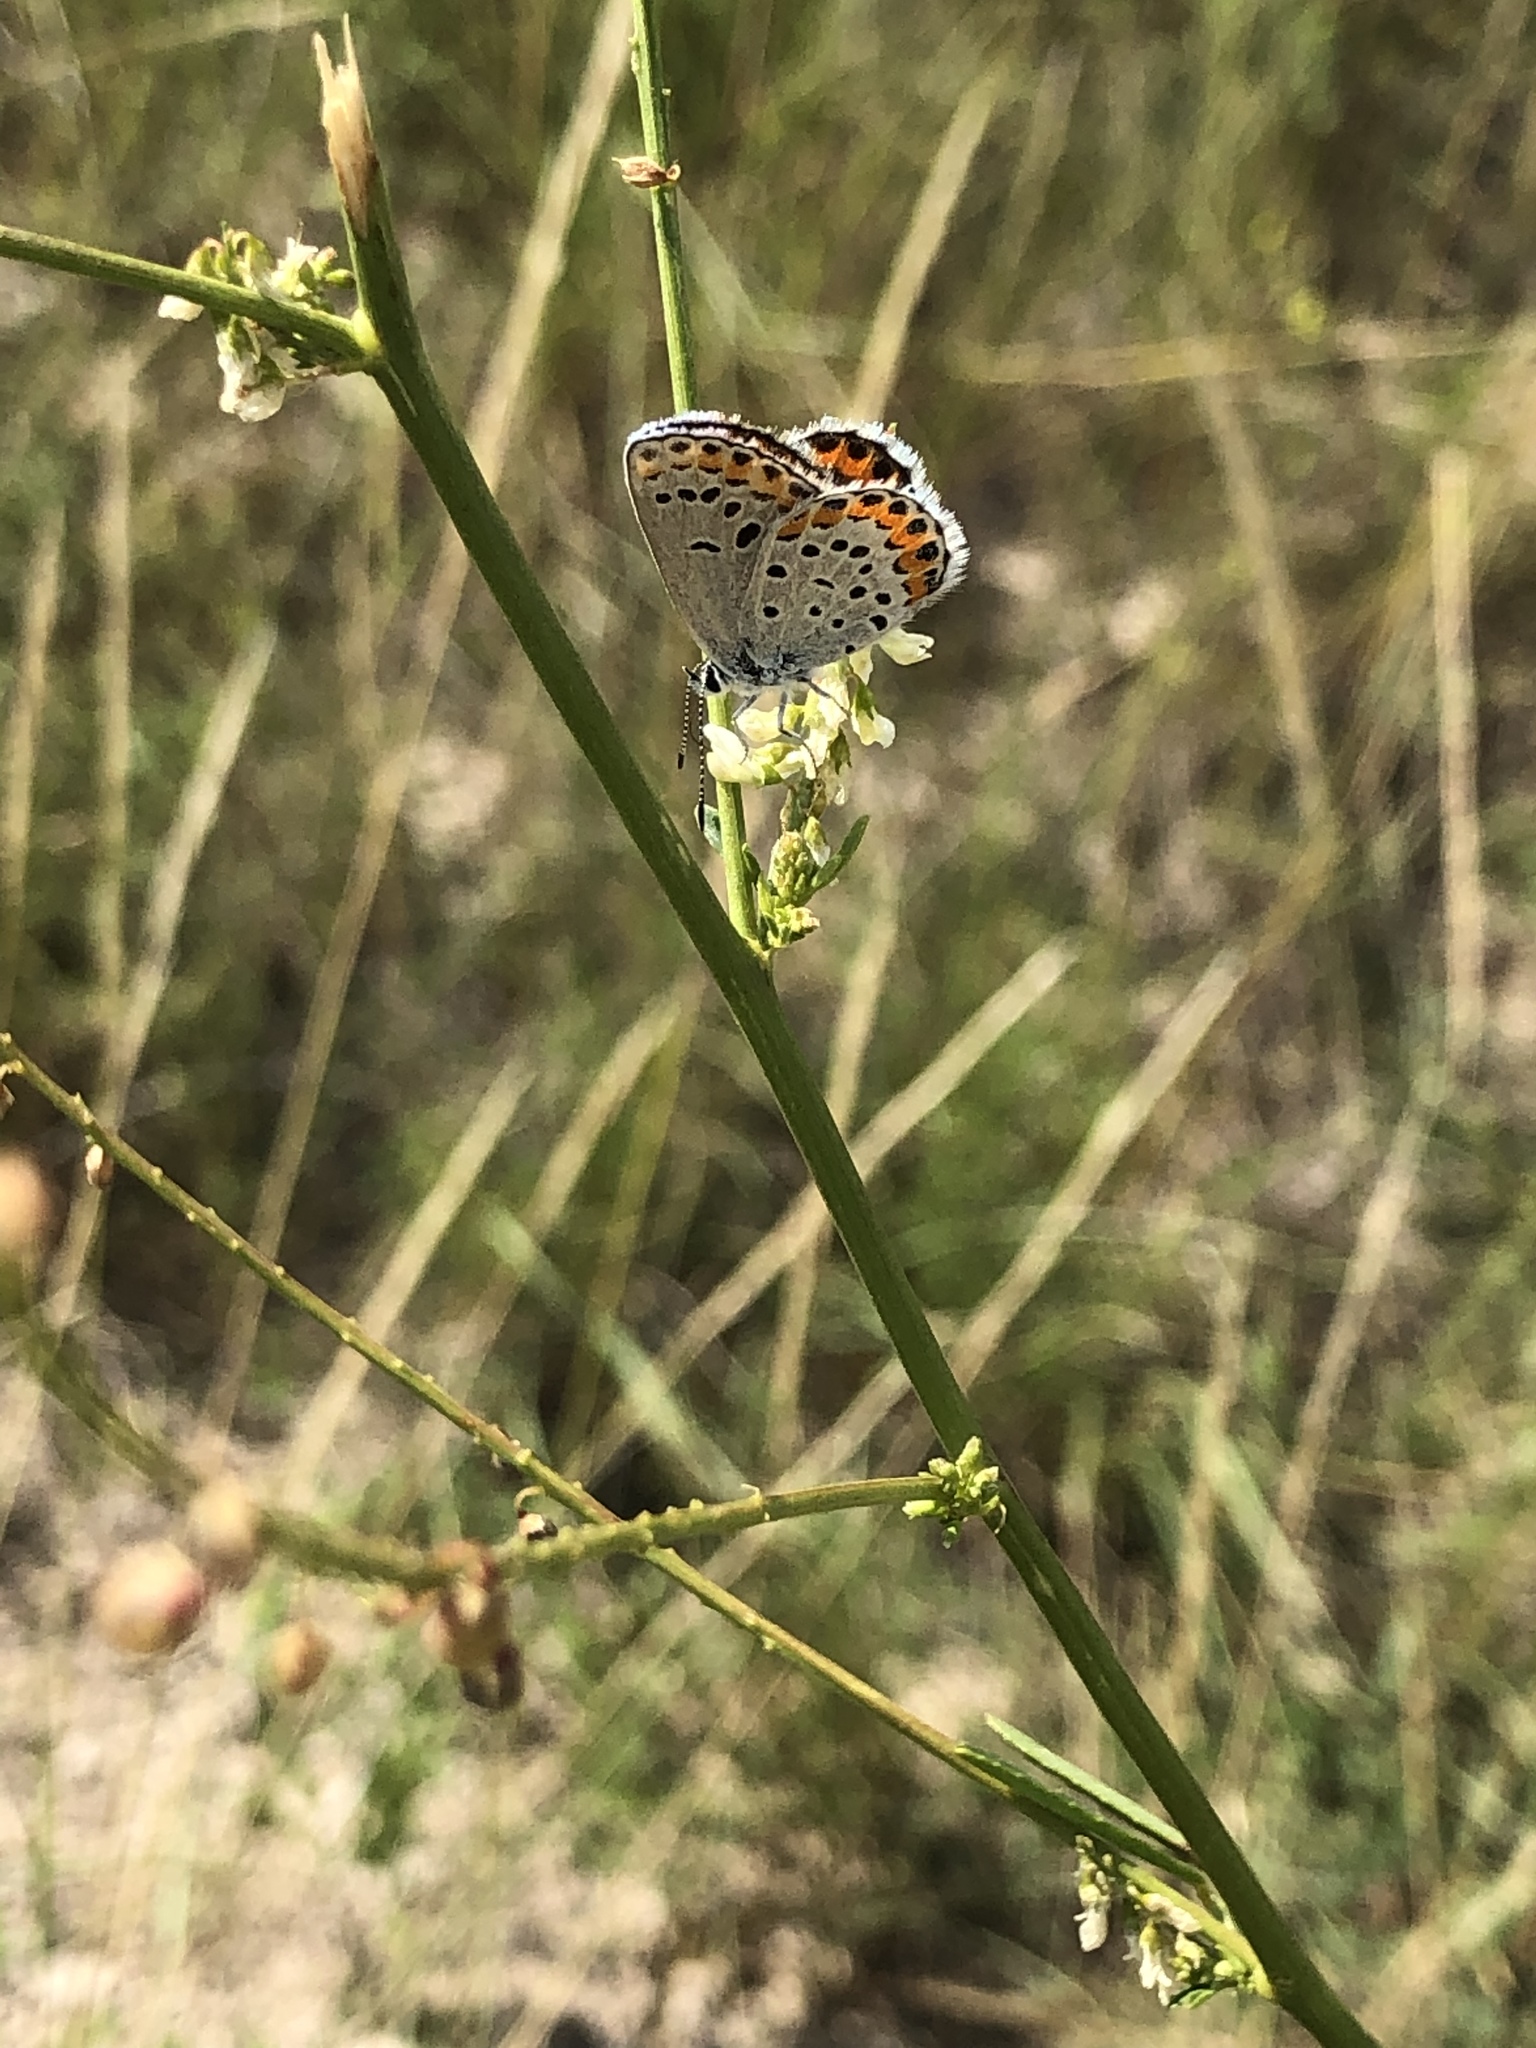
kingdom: Animalia
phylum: Arthropoda
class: Insecta
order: Lepidoptera
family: Lycaenidae
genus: Lycaeides
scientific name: Lycaeides melissa
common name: Melissa blue
